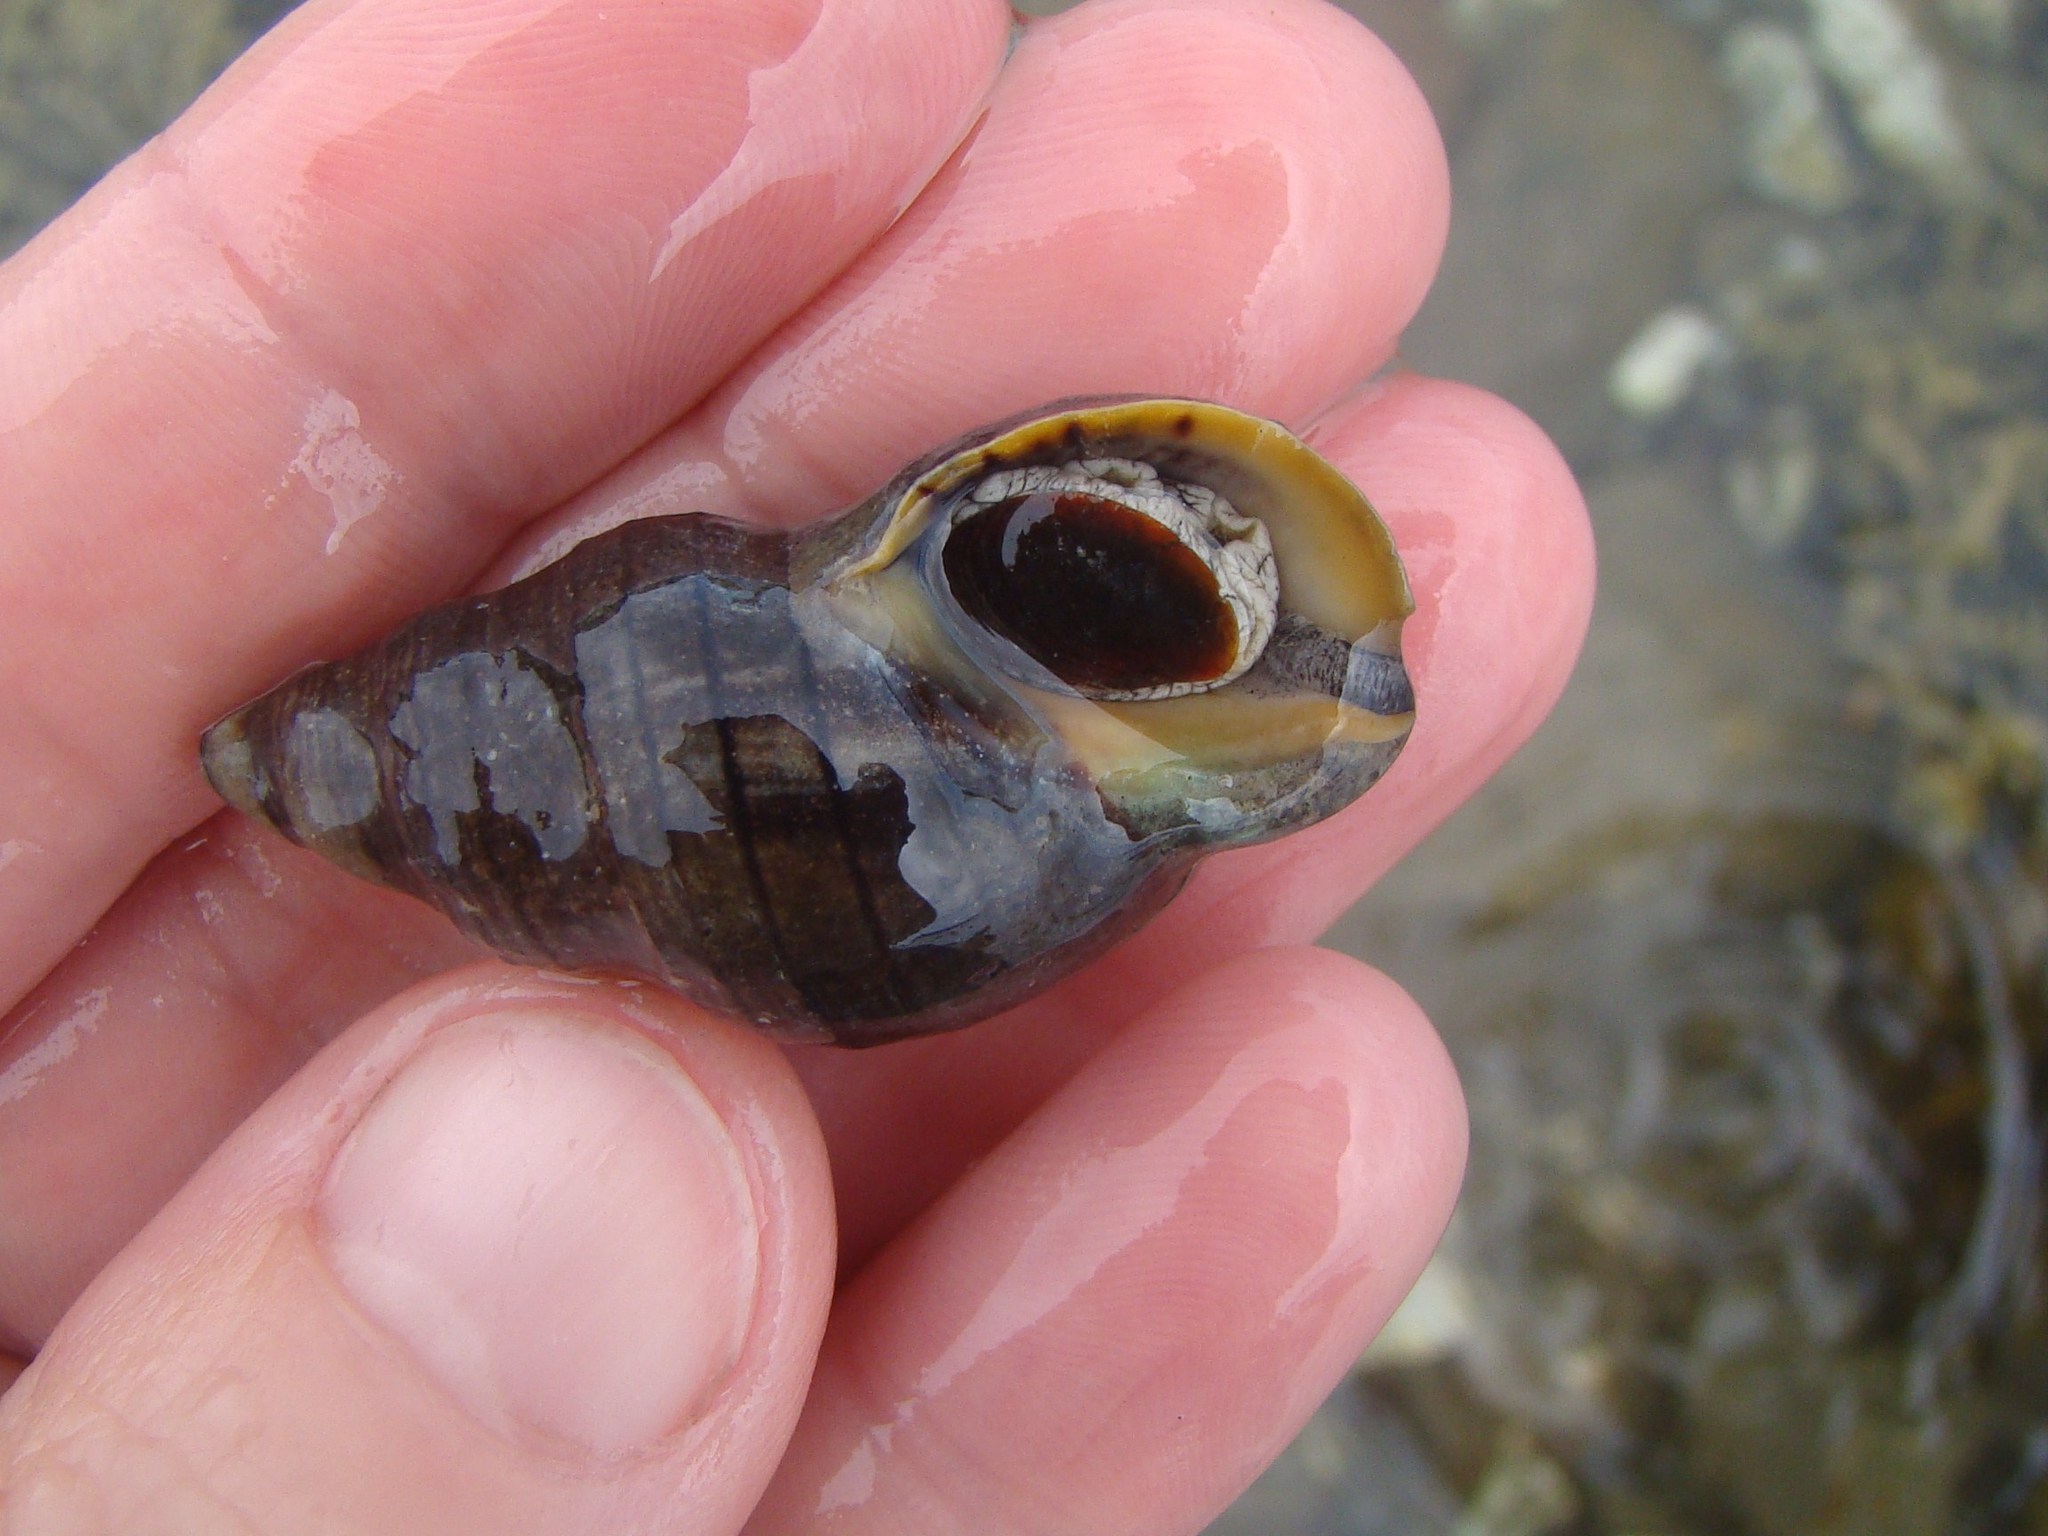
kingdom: Animalia
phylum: Mollusca
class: Gastropoda
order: Neogastropoda
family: Cominellidae
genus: Cominella
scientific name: Cominella virgata
